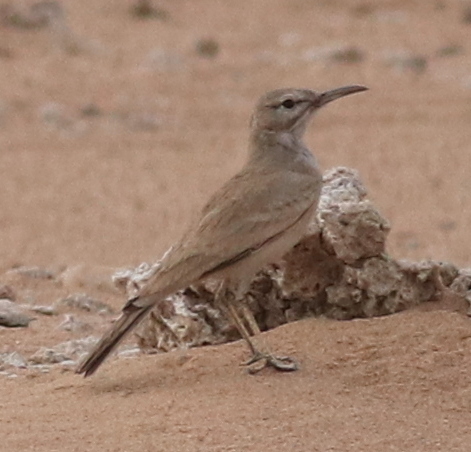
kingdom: Animalia
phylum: Chordata
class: Aves
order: Passeriformes
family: Alaudidae
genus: Alaemon
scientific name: Alaemon alaudipes
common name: Greater hoopoe-lark
